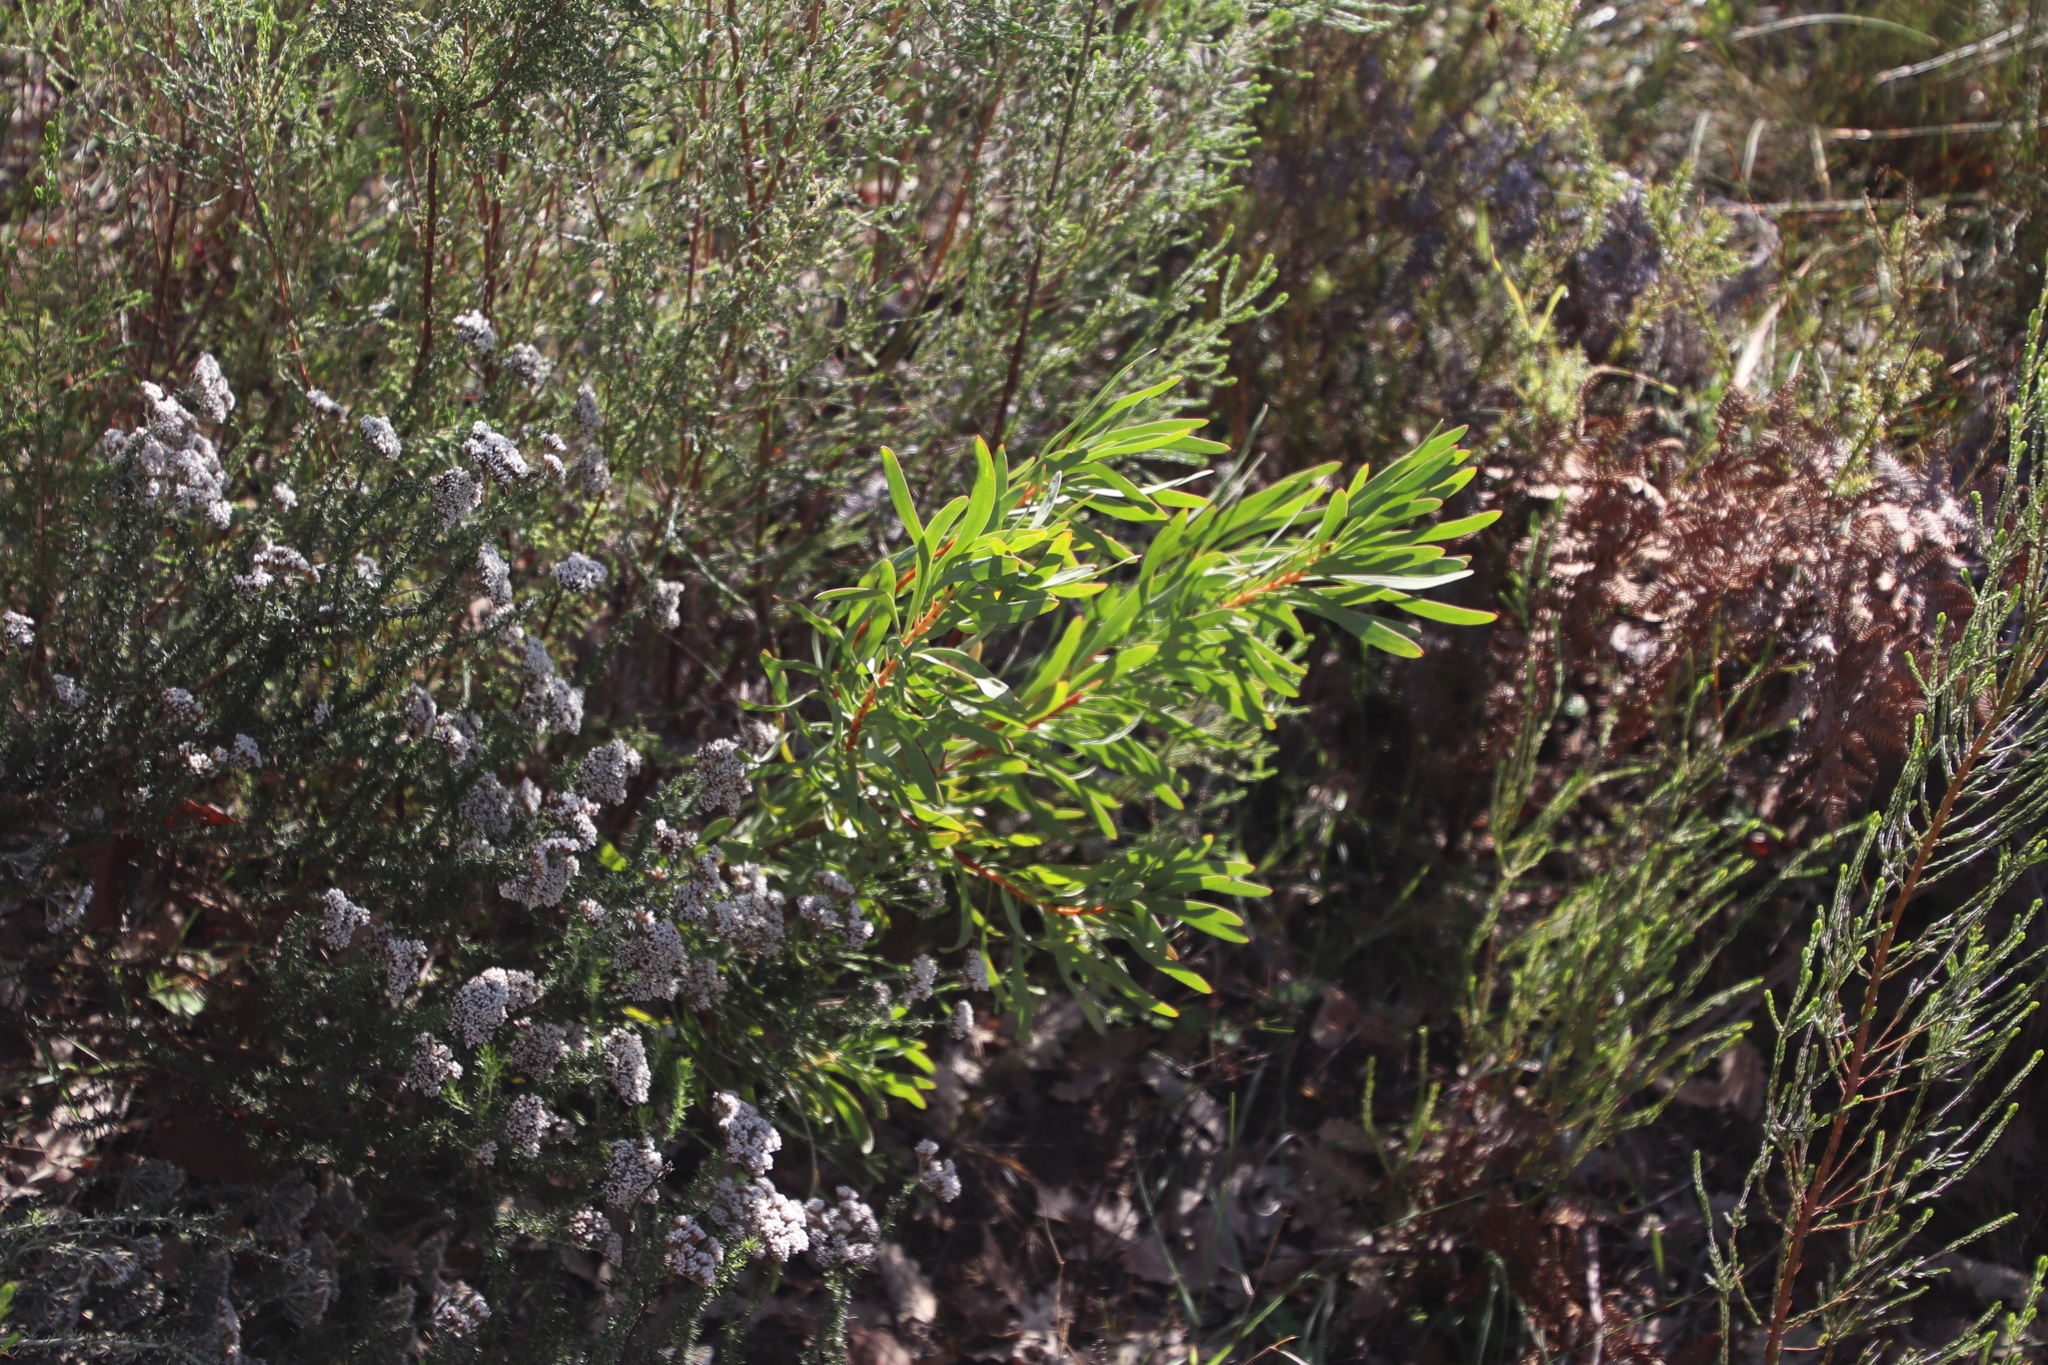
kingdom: Plantae
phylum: Tracheophyta
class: Magnoliopsida
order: Proteales
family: Proteaceae
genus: Protea
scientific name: Protea repens
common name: Sugarbush
